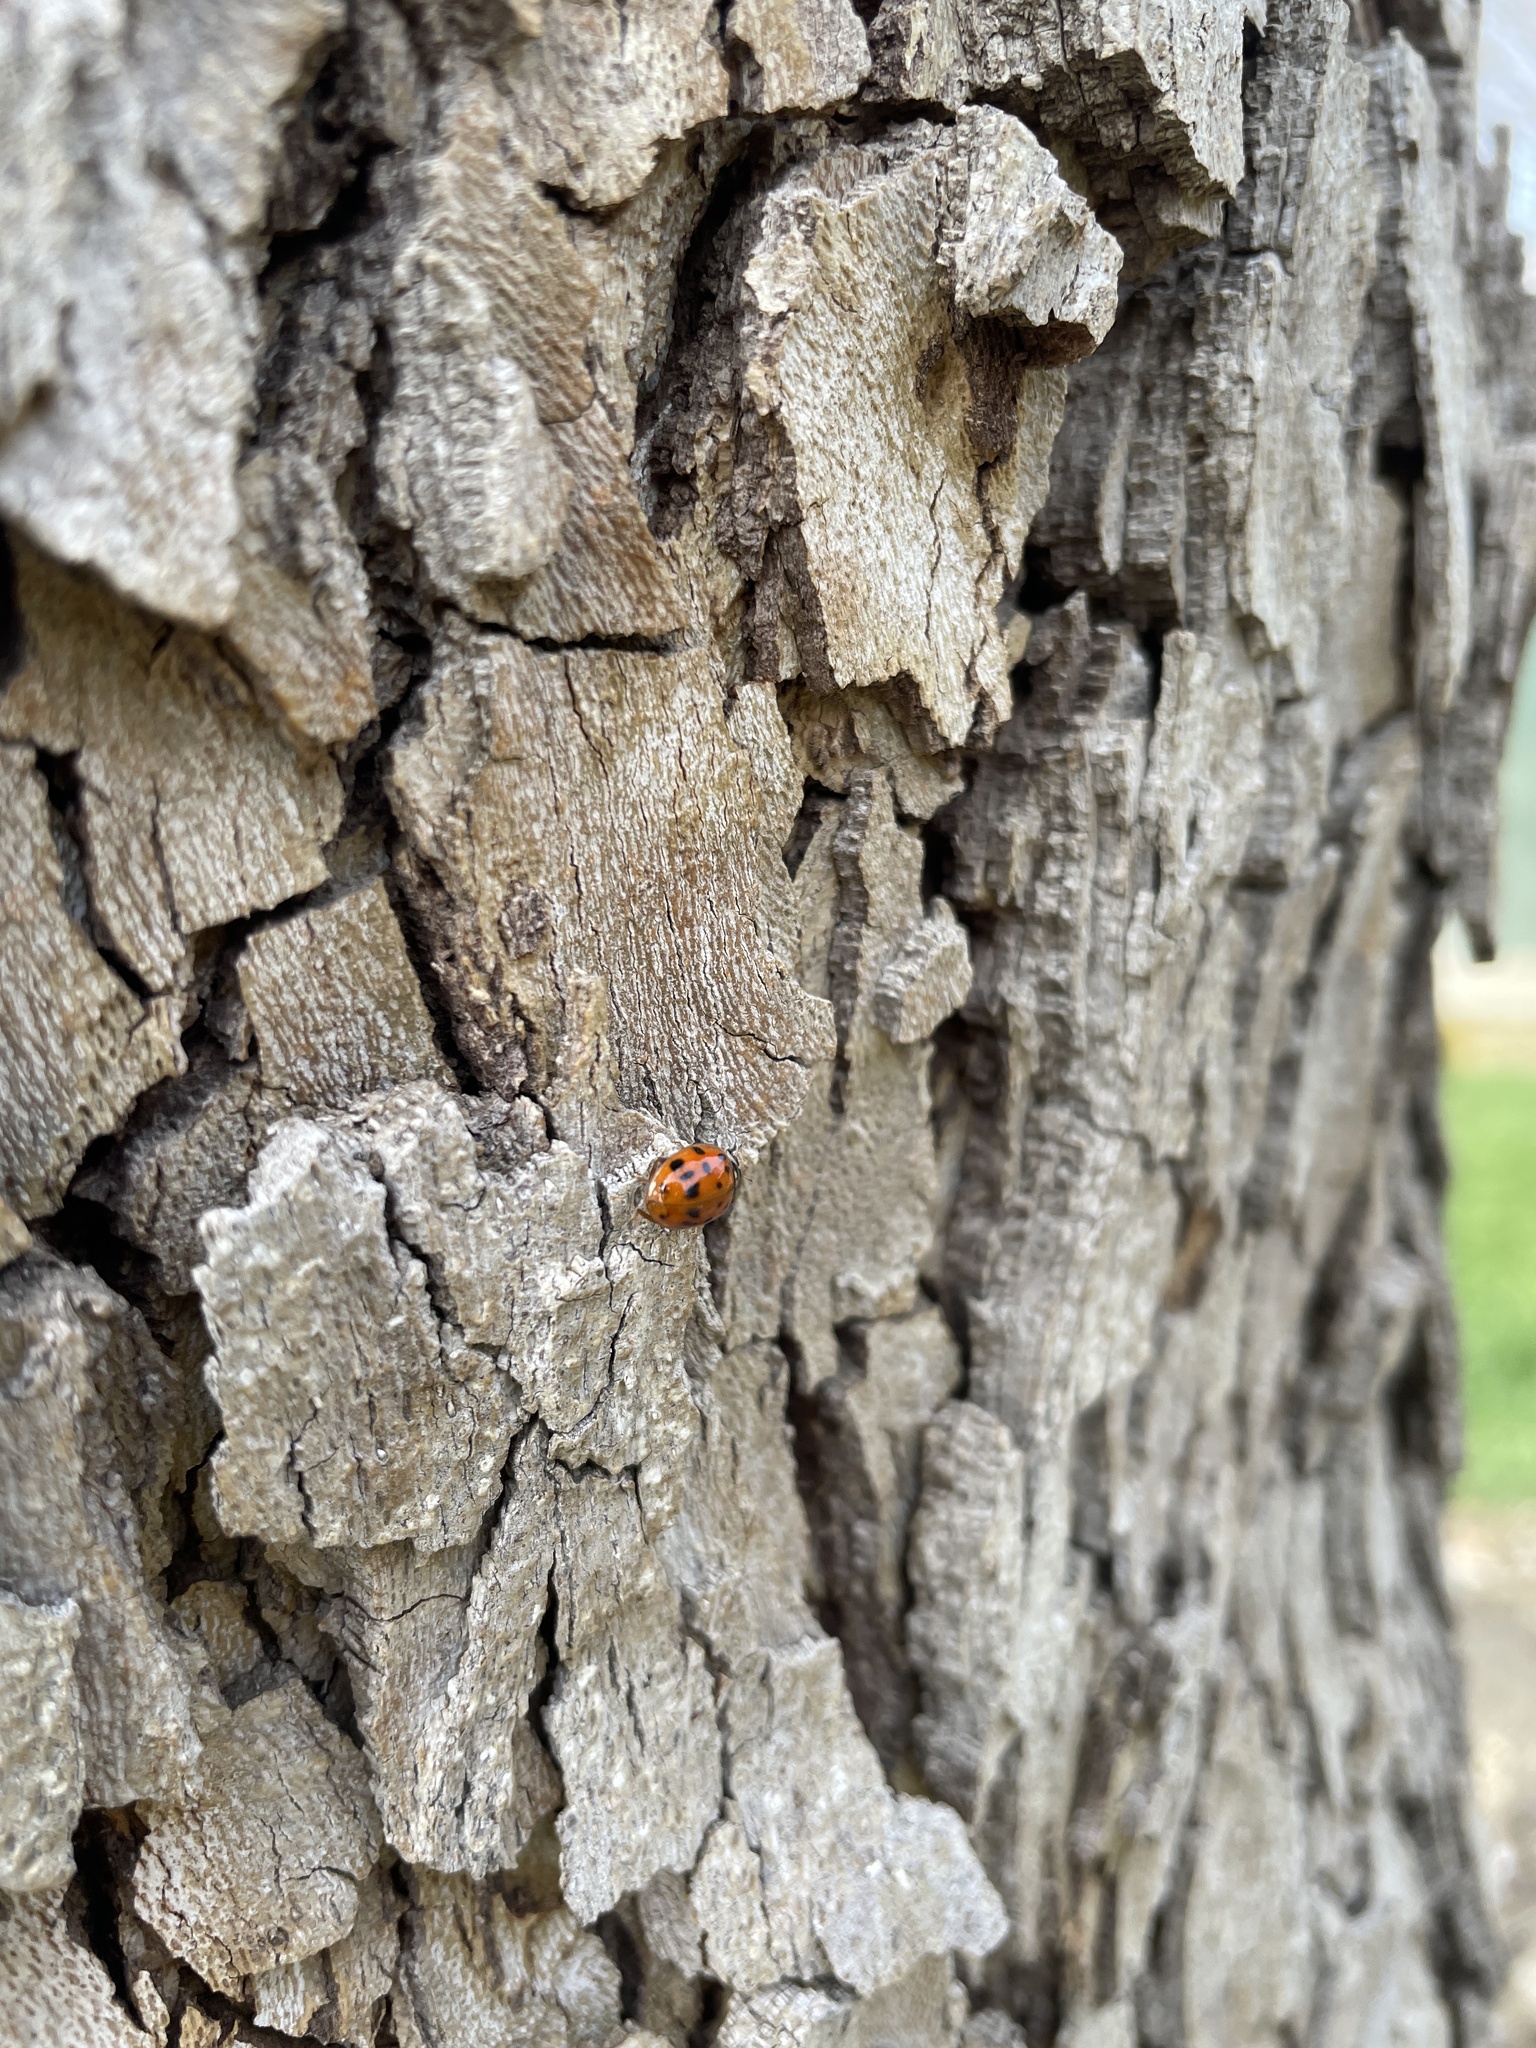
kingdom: Animalia
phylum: Arthropoda
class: Insecta
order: Coleoptera
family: Coccinellidae
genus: Harmonia
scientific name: Harmonia axyridis
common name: Harlequin ladybird
